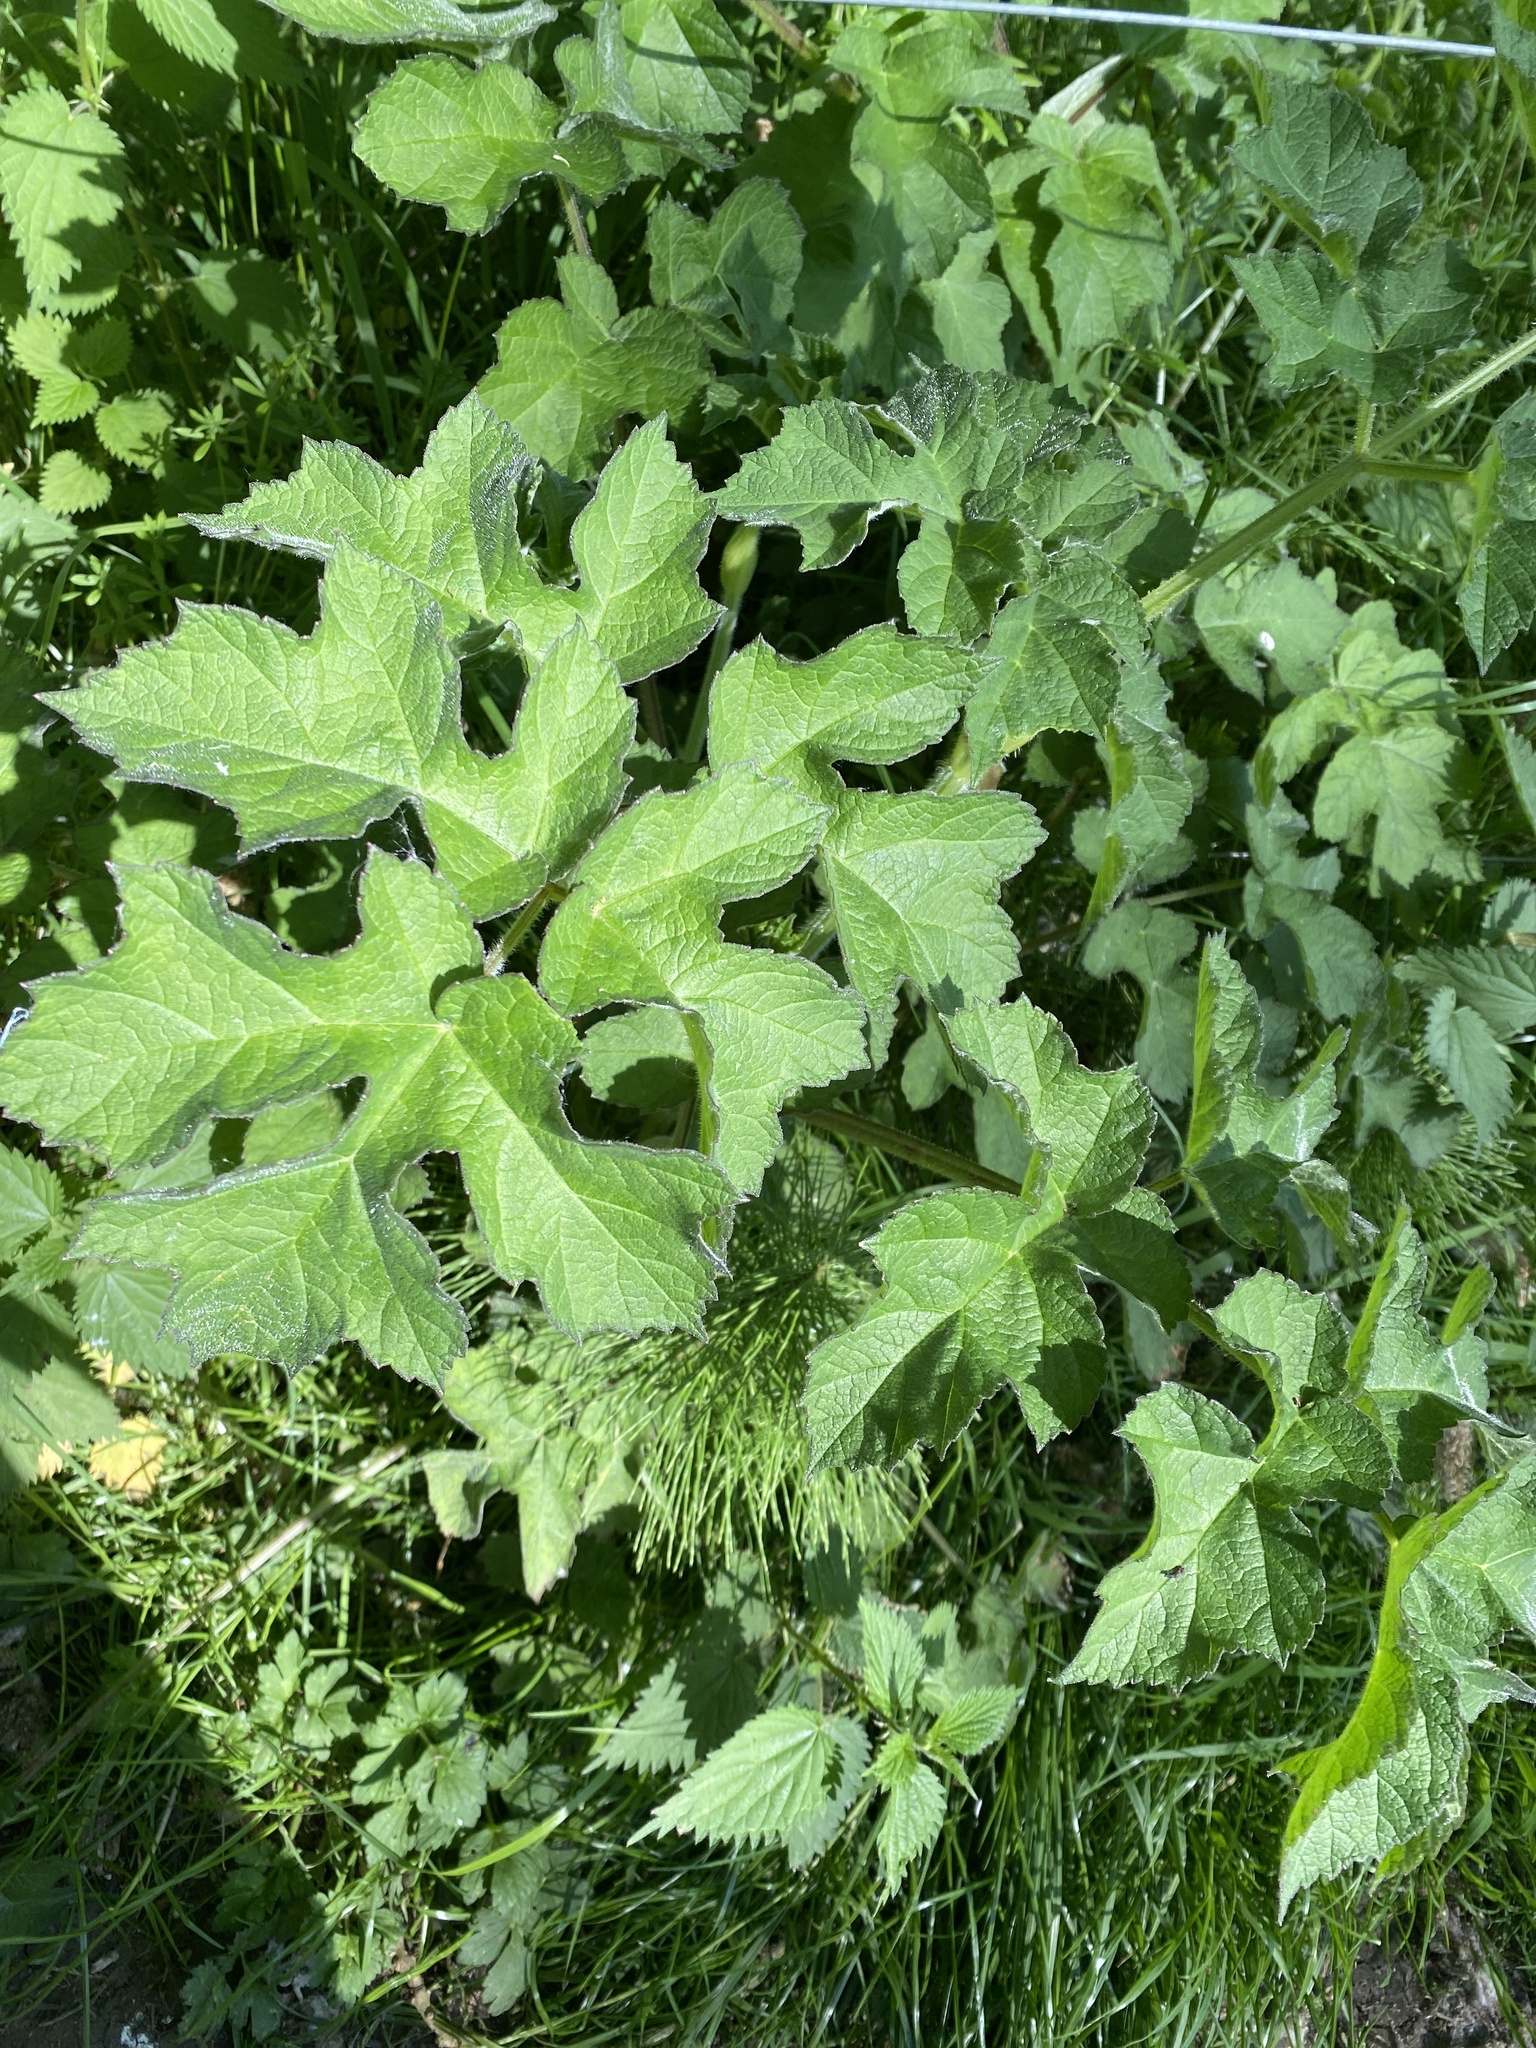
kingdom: Plantae
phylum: Tracheophyta
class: Magnoliopsida
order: Apiales
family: Apiaceae
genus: Heracleum
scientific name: Heracleum sphondylium
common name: Hogweed
